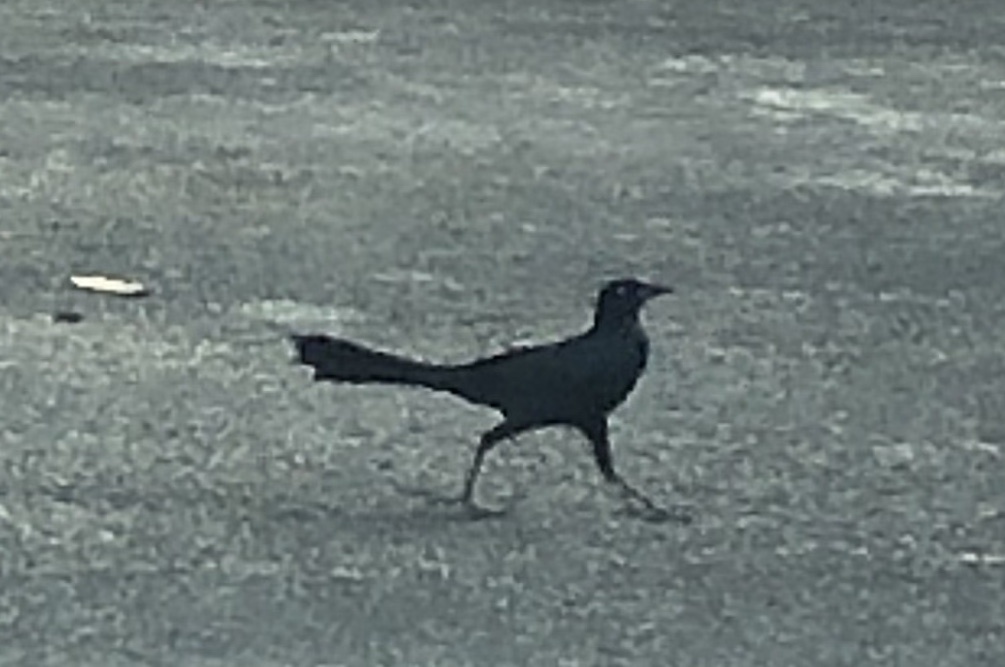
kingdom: Animalia
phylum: Chordata
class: Aves
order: Passeriformes
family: Icteridae
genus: Quiscalus
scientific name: Quiscalus mexicanus
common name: Great-tailed grackle
